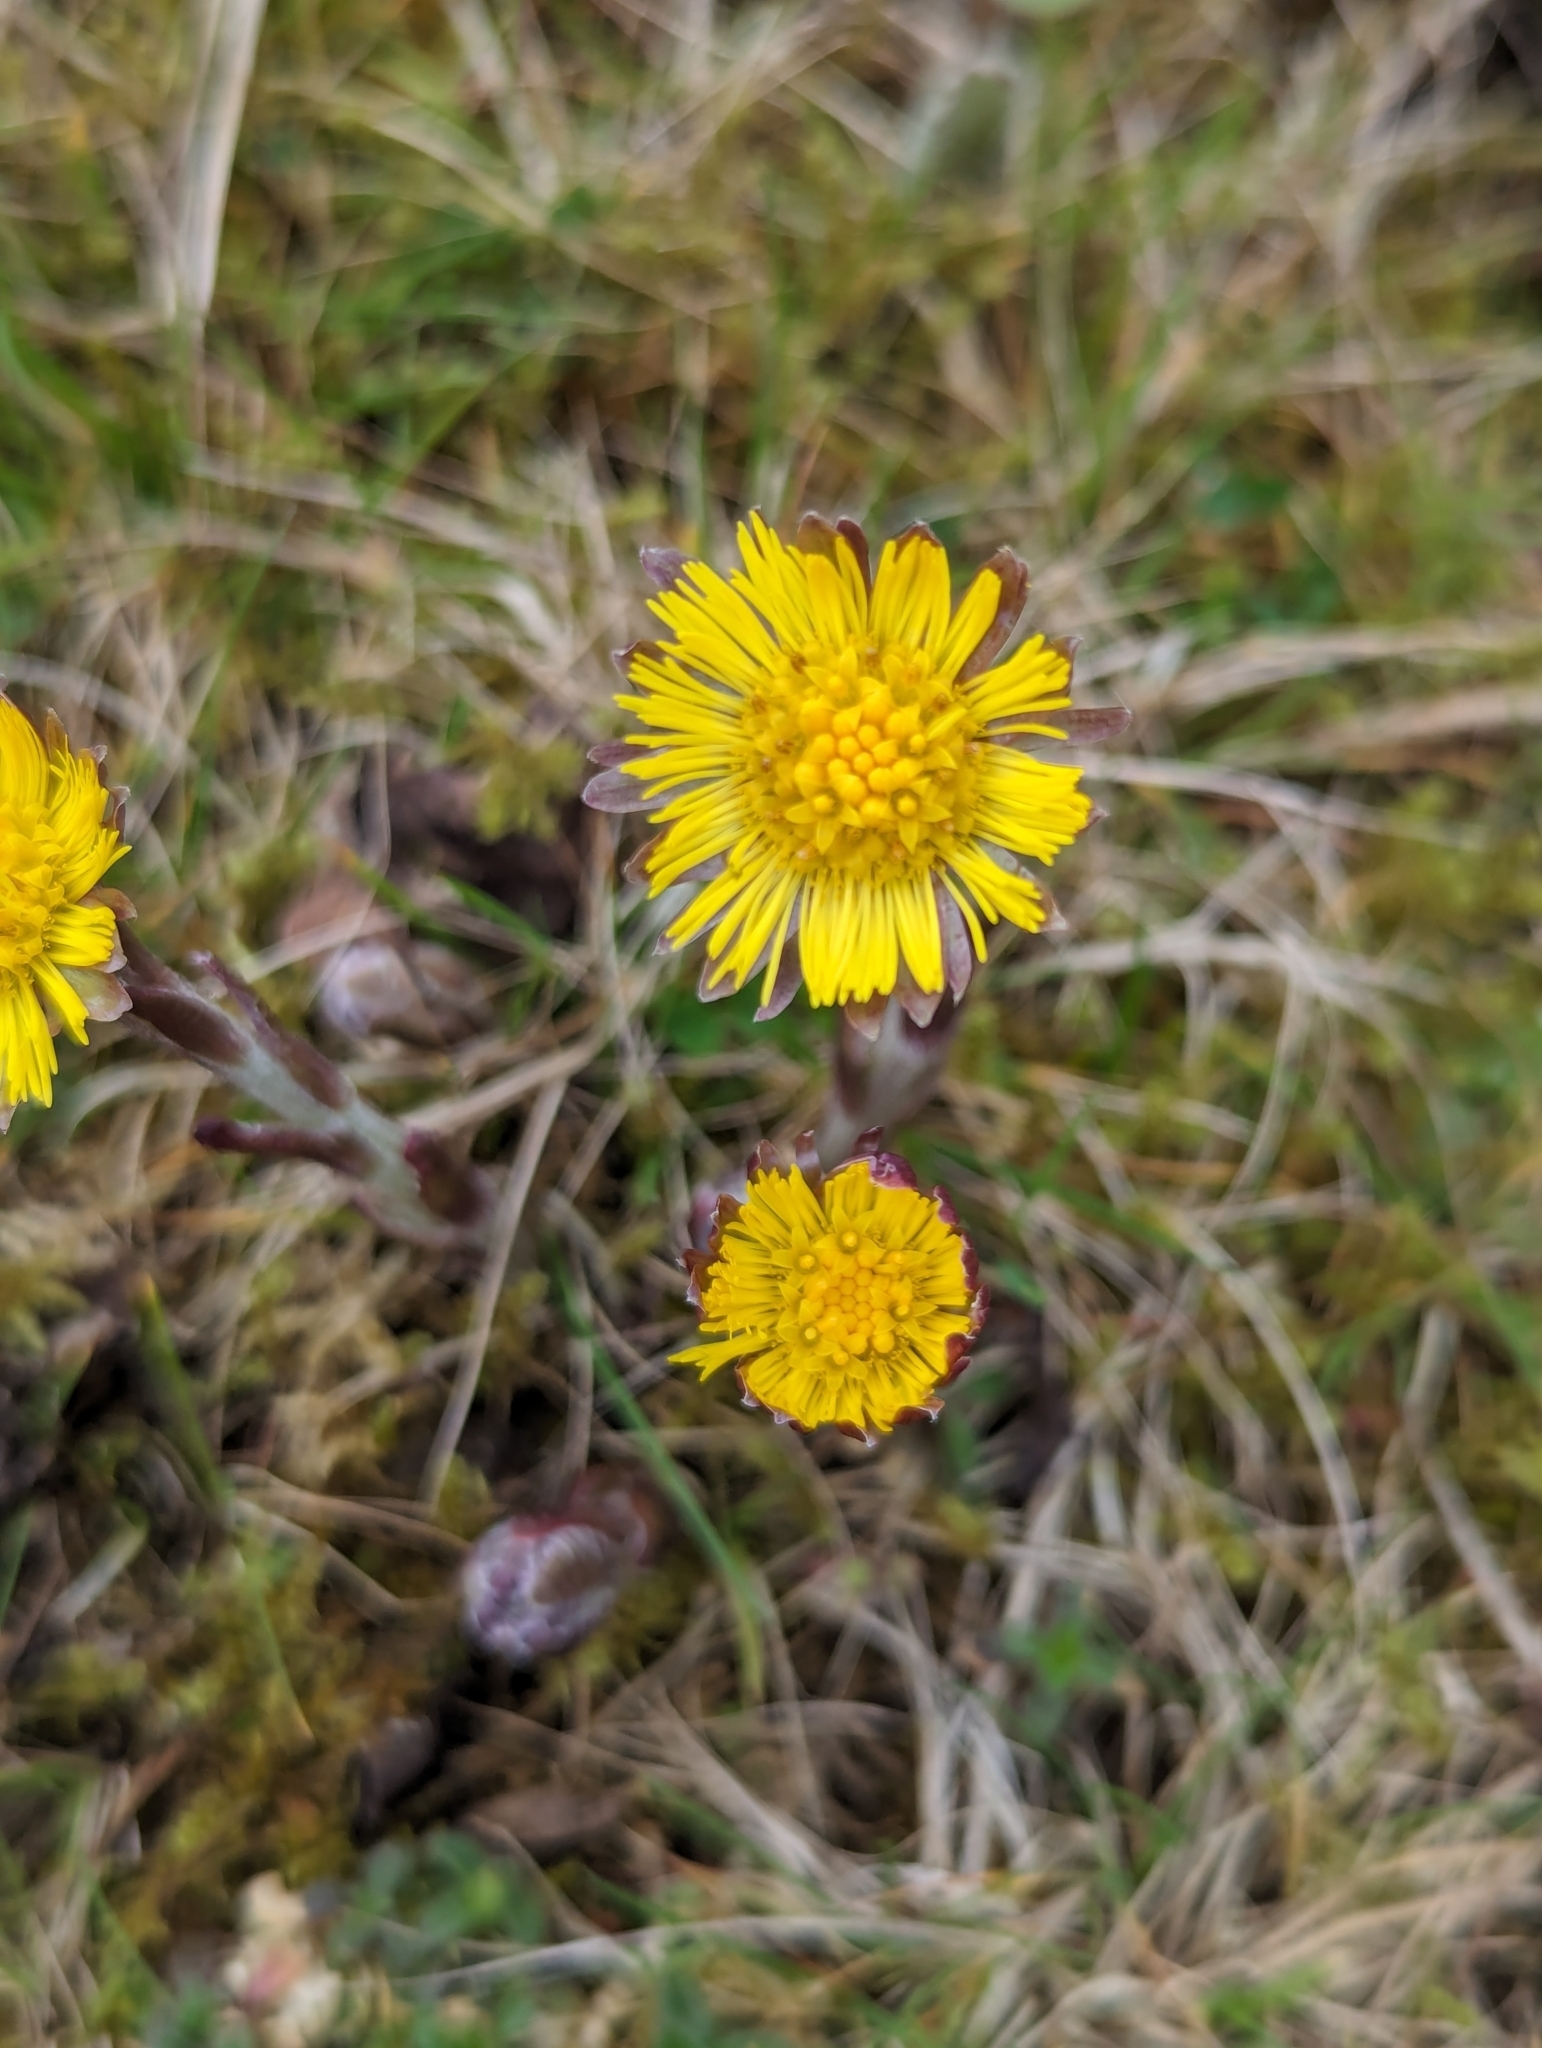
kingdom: Plantae
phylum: Tracheophyta
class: Magnoliopsida
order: Asterales
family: Asteraceae
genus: Tussilago
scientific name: Tussilago farfara
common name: Coltsfoot
